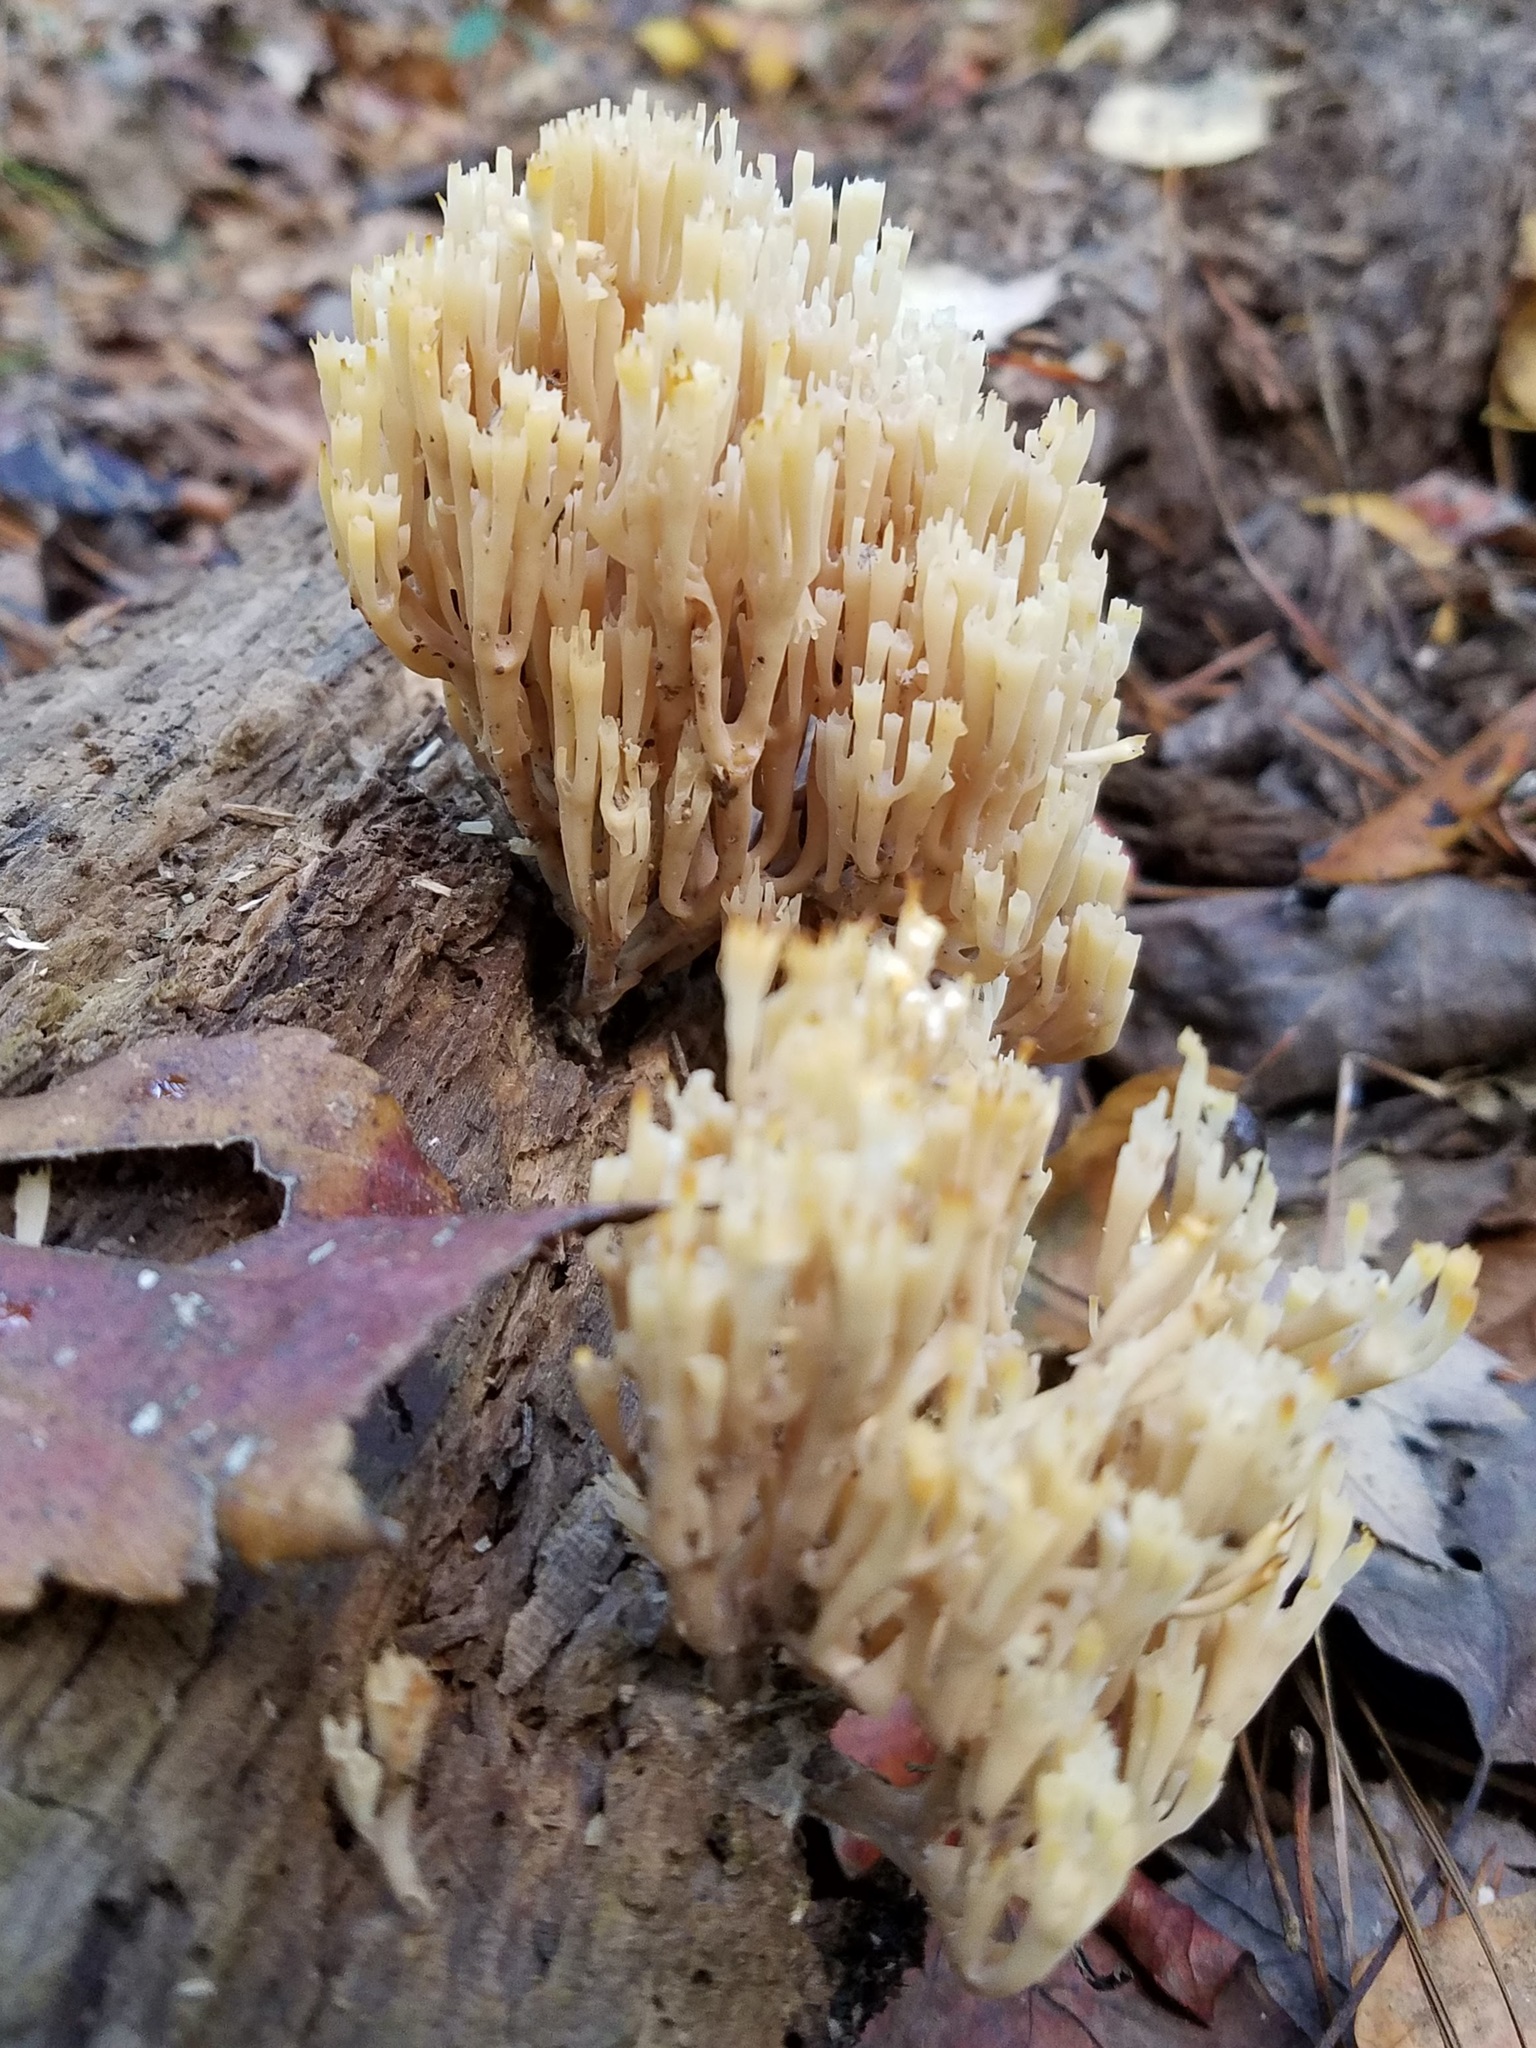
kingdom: Fungi
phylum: Basidiomycota
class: Agaricomycetes
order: Russulales
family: Auriscalpiaceae
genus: Artomyces
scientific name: Artomyces pyxidatus
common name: Crown-tipped coral fungus
